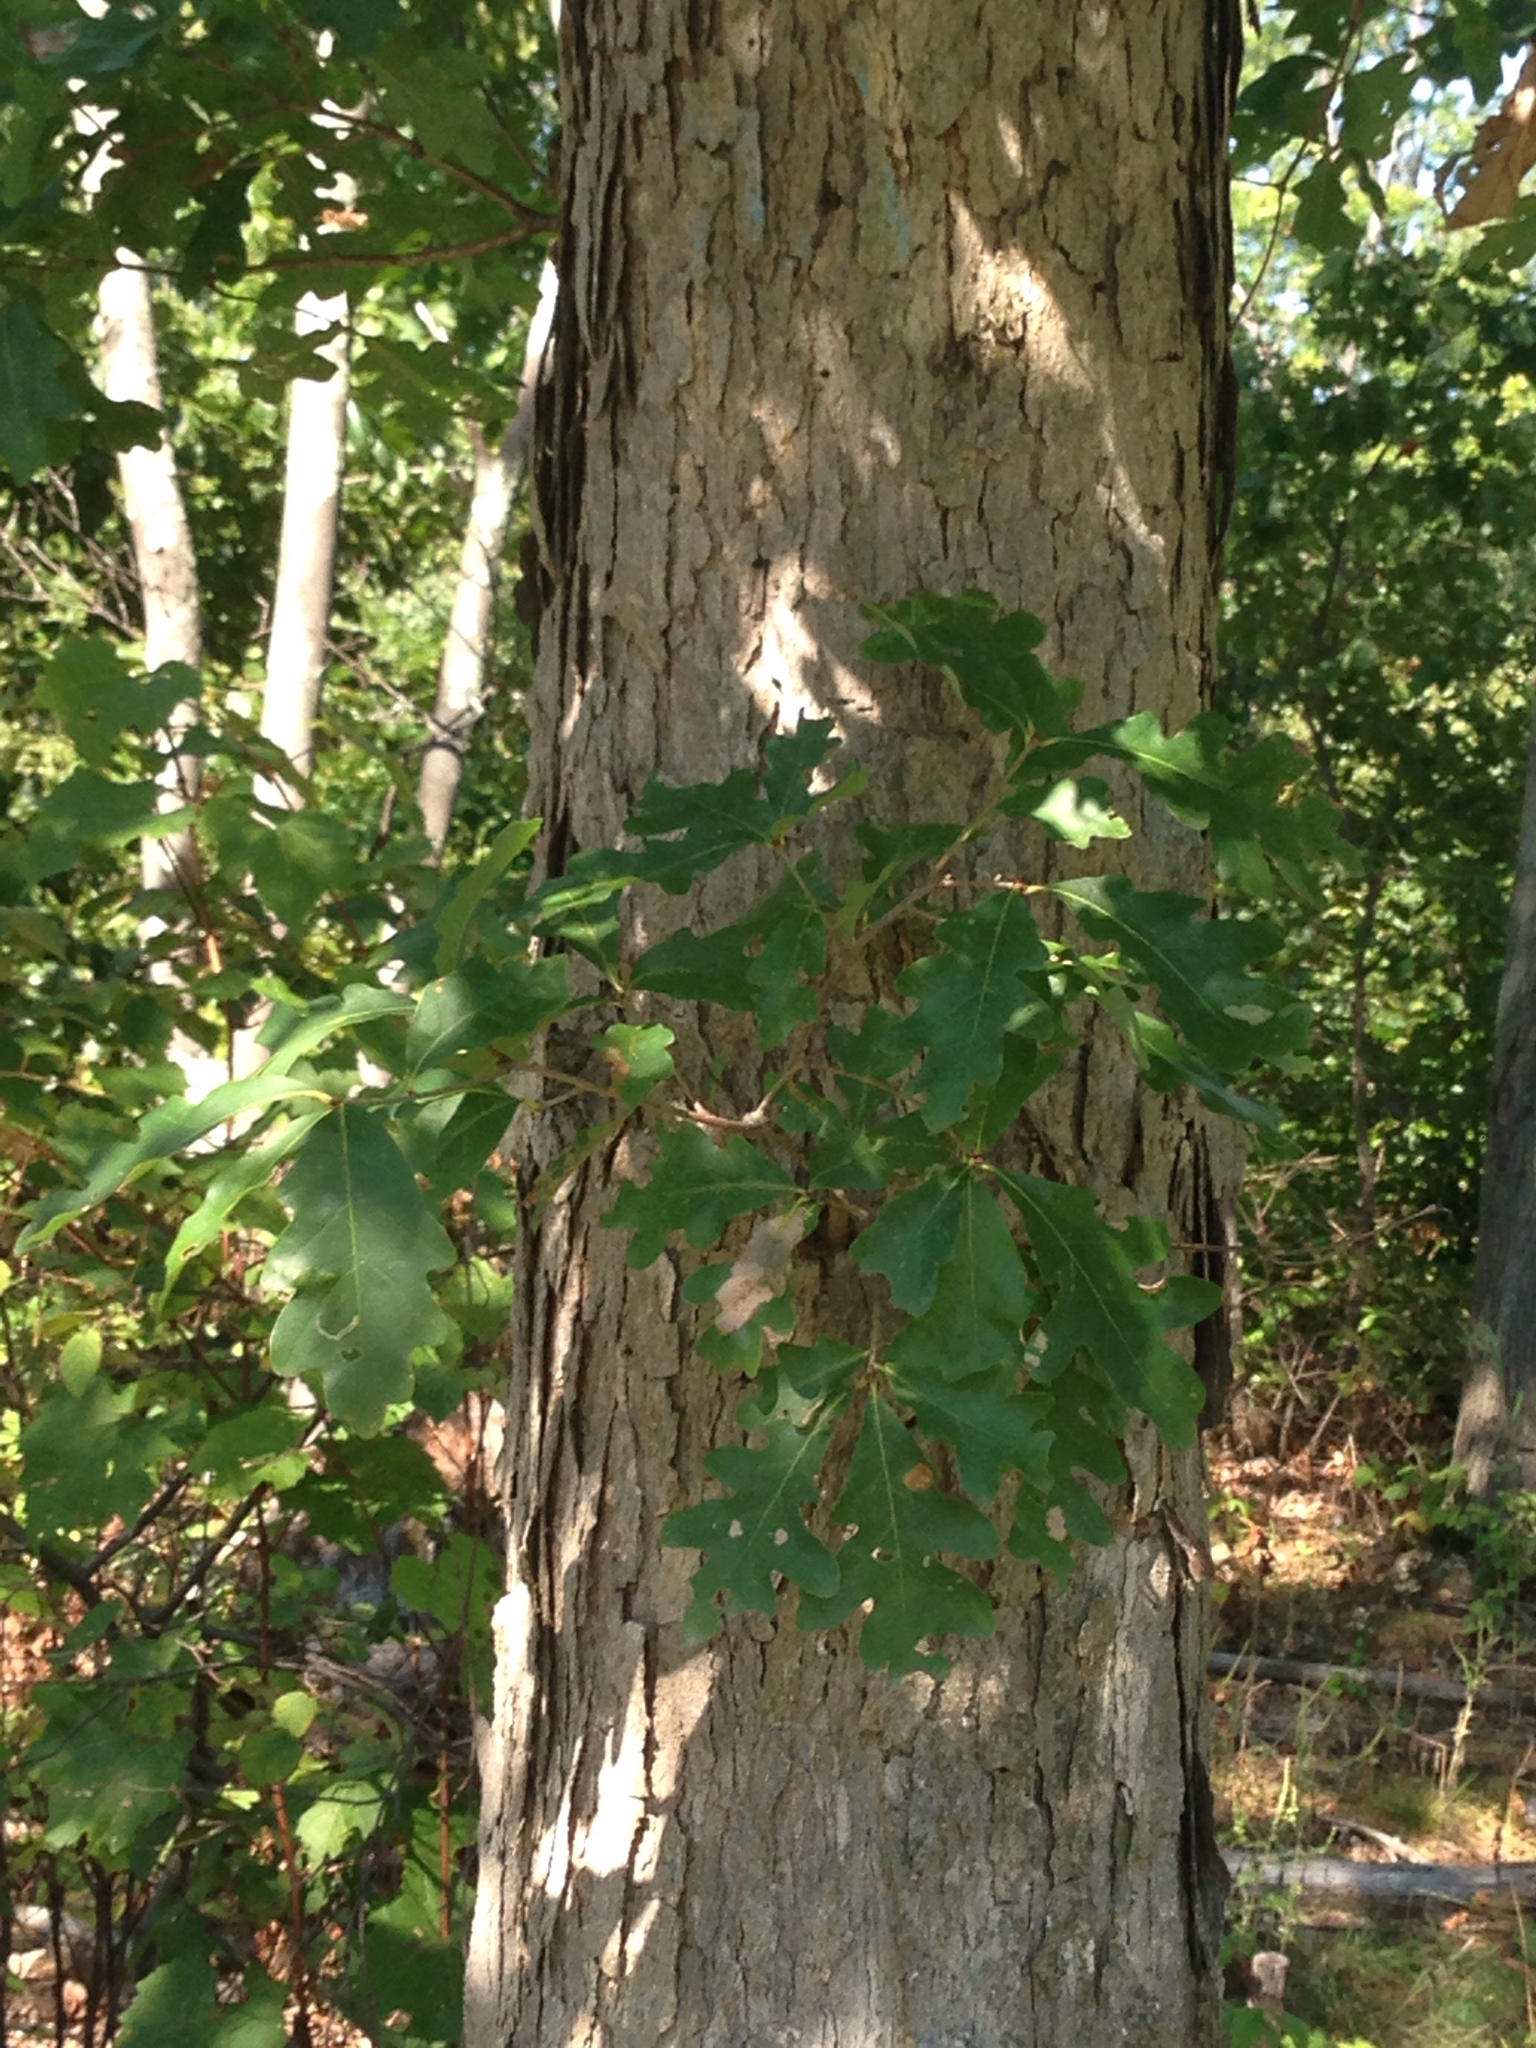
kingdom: Plantae
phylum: Tracheophyta
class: Magnoliopsida
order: Fagales
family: Fagaceae
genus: Quercus
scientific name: Quercus alba
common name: White oak
